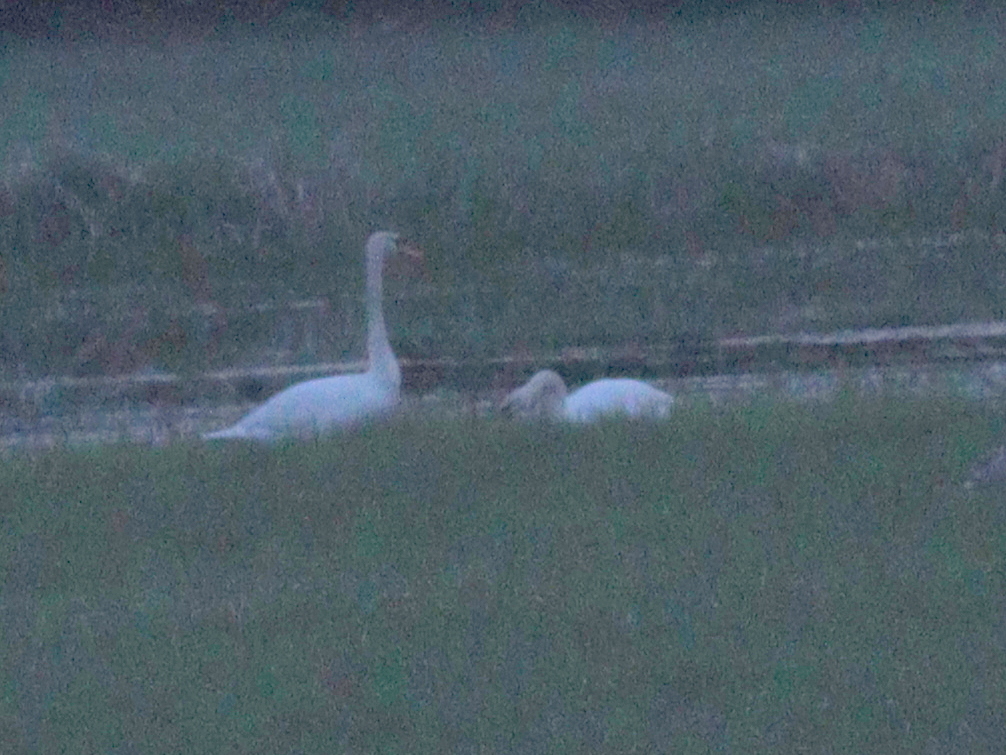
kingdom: Animalia
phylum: Chordata
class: Aves
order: Anseriformes
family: Anatidae
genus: Cygnus
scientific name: Cygnus olor
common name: Mute swan
